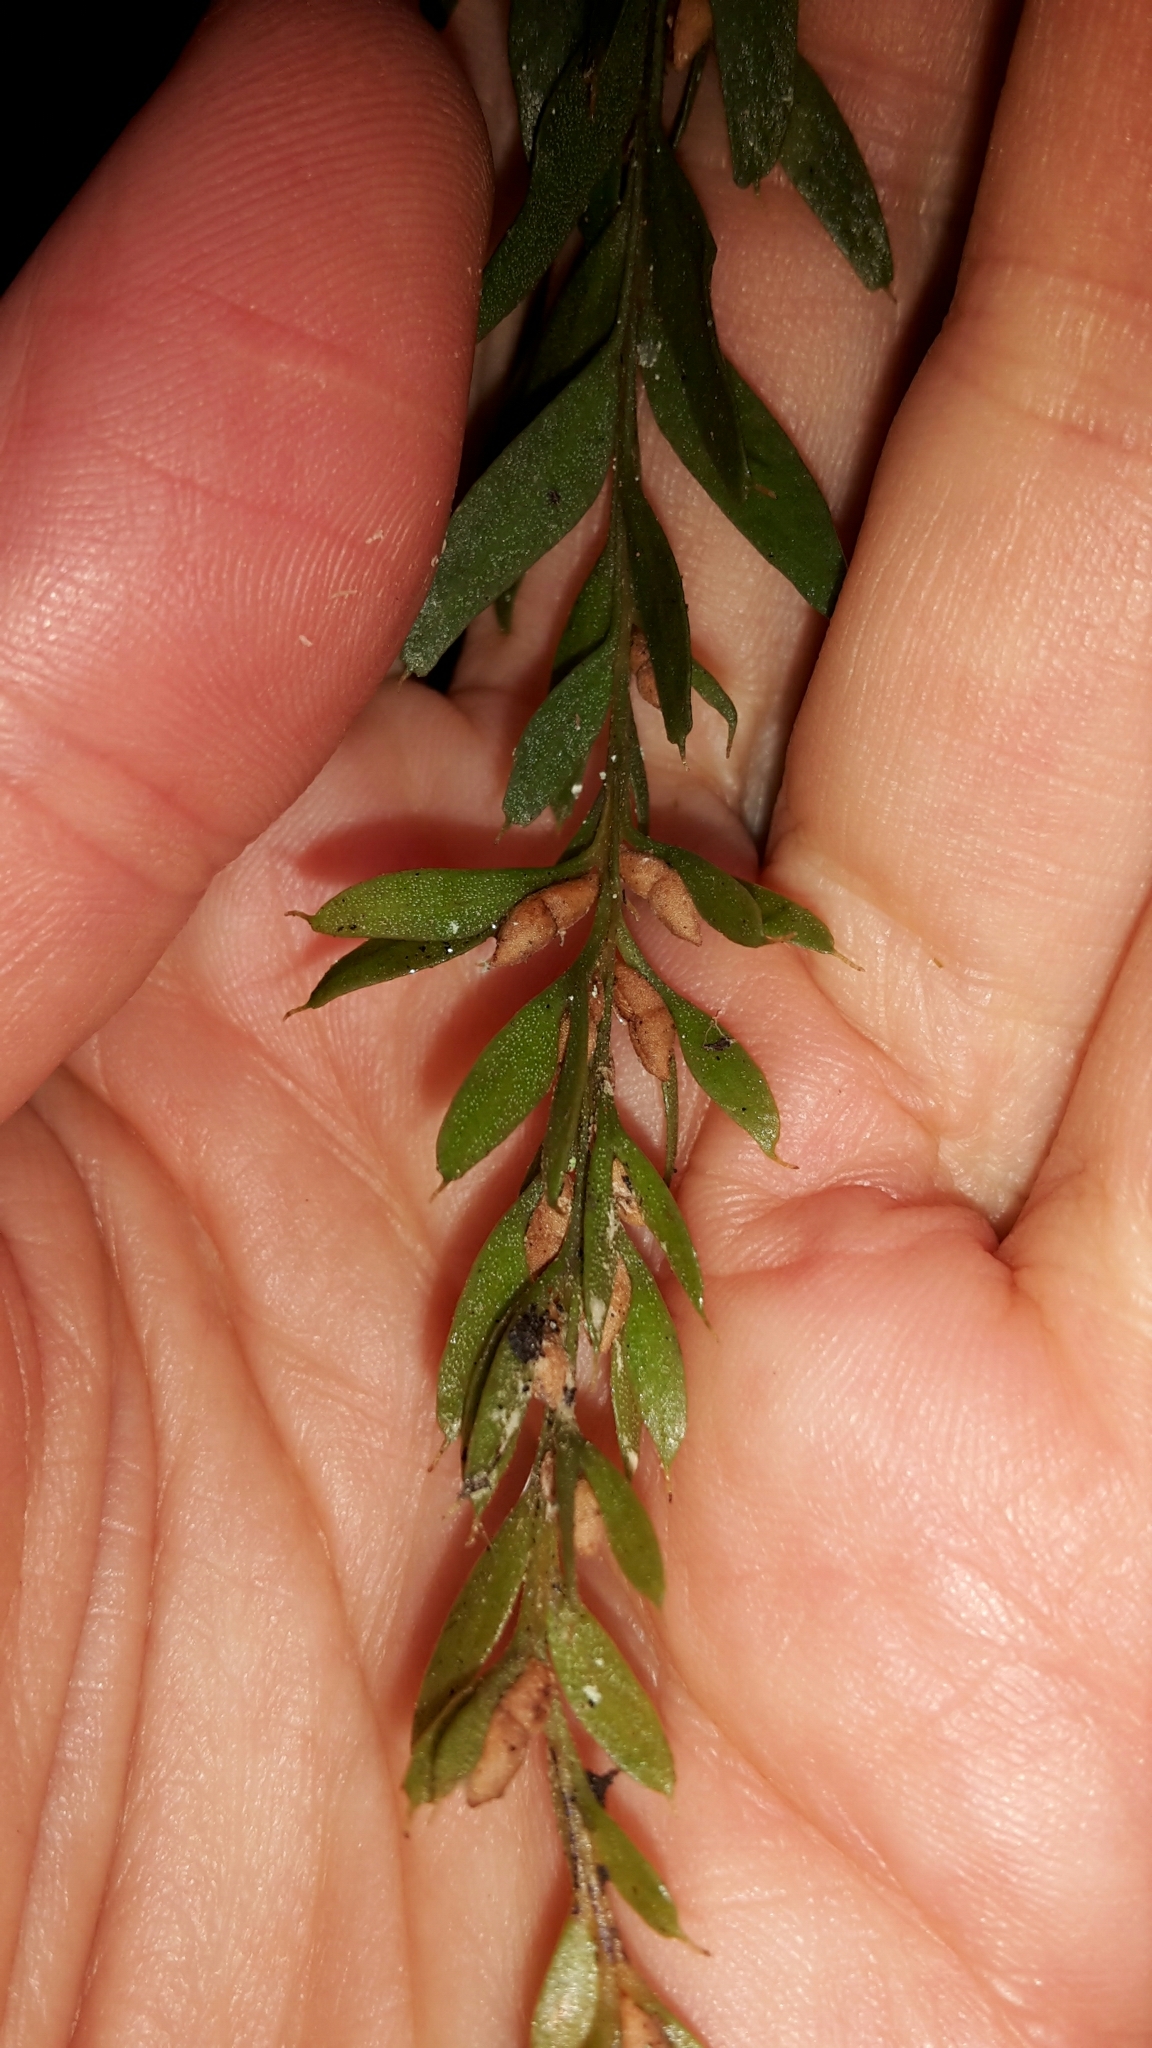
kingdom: Plantae
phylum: Tracheophyta
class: Polypodiopsida
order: Psilotales
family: Psilotaceae
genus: Tmesipteris
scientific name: Tmesipteris tannensis
